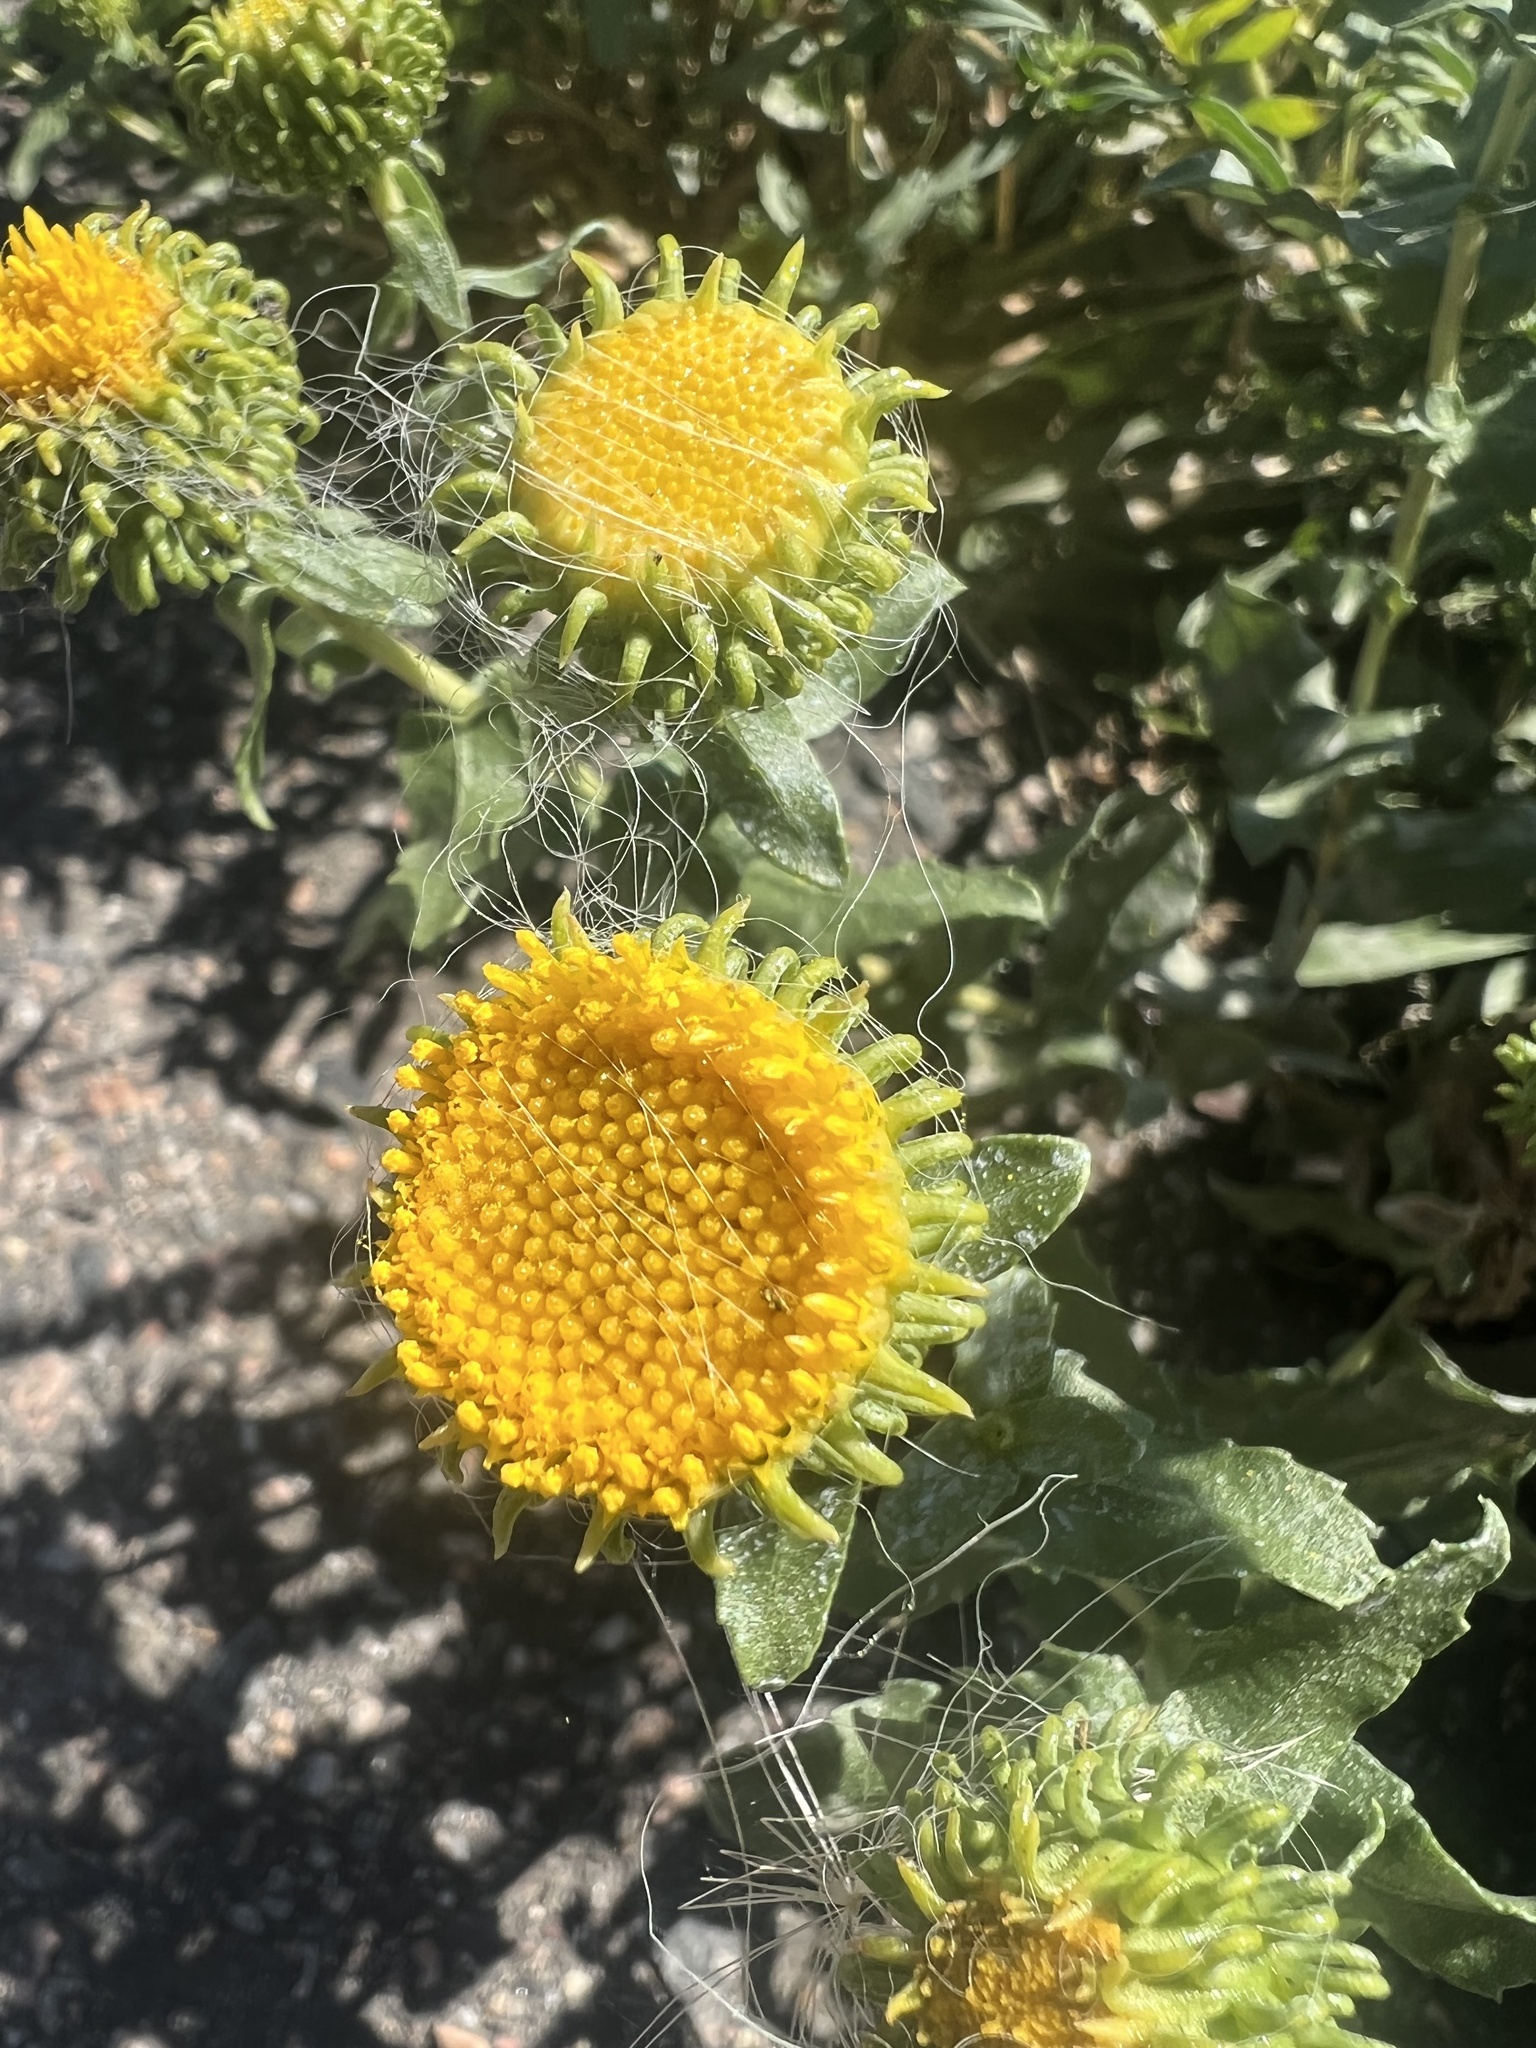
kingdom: Plantae
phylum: Tracheophyta
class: Magnoliopsida
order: Asterales
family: Asteraceae
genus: Grindelia
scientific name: Grindelia hirsutula
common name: Hairy gumweed
